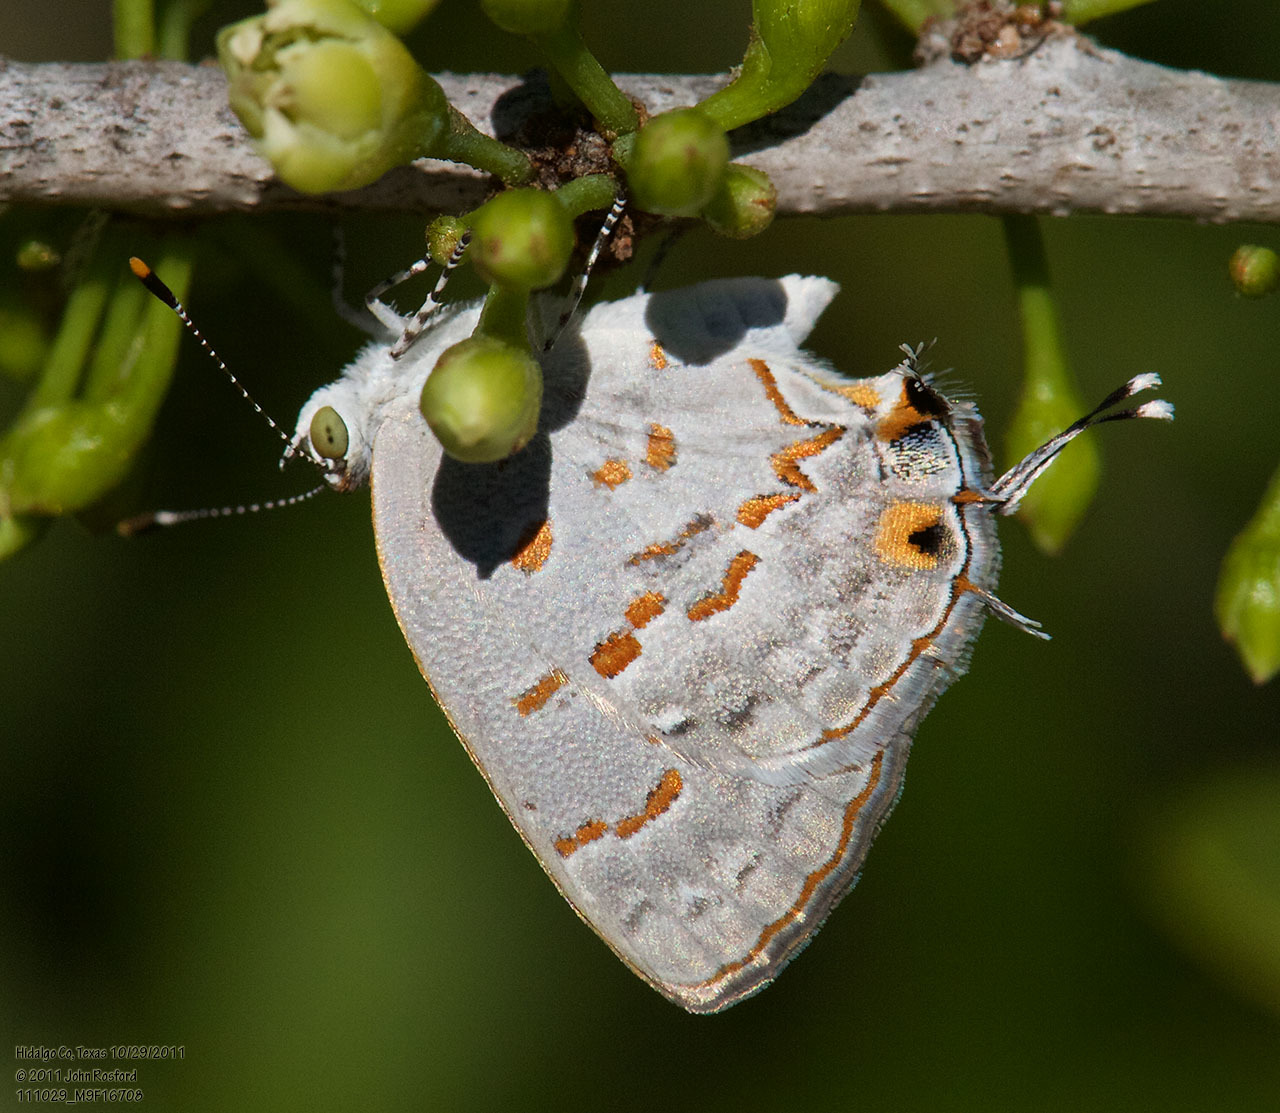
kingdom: Animalia
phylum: Arthropoda
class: Insecta
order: Lepidoptera
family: Lycaenidae
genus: Ministrymon
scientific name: Ministrymon clytie
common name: Clytie ministreak
